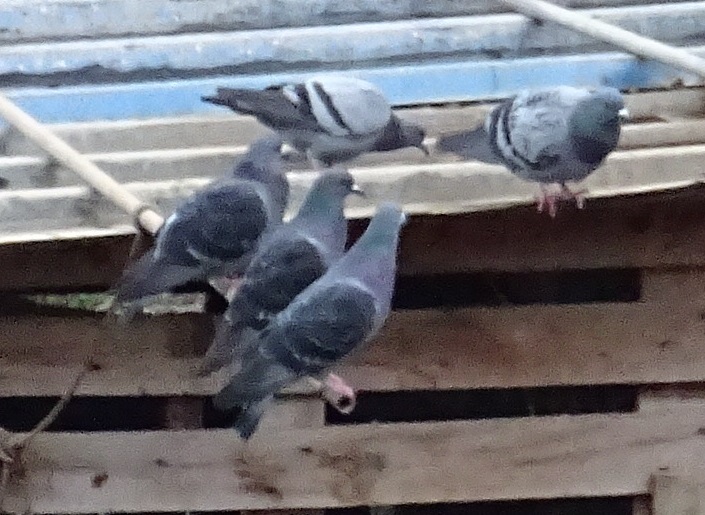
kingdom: Animalia
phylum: Chordata
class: Aves
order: Columbiformes
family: Columbidae
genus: Columba
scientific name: Columba livia
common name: Rock pigeon
